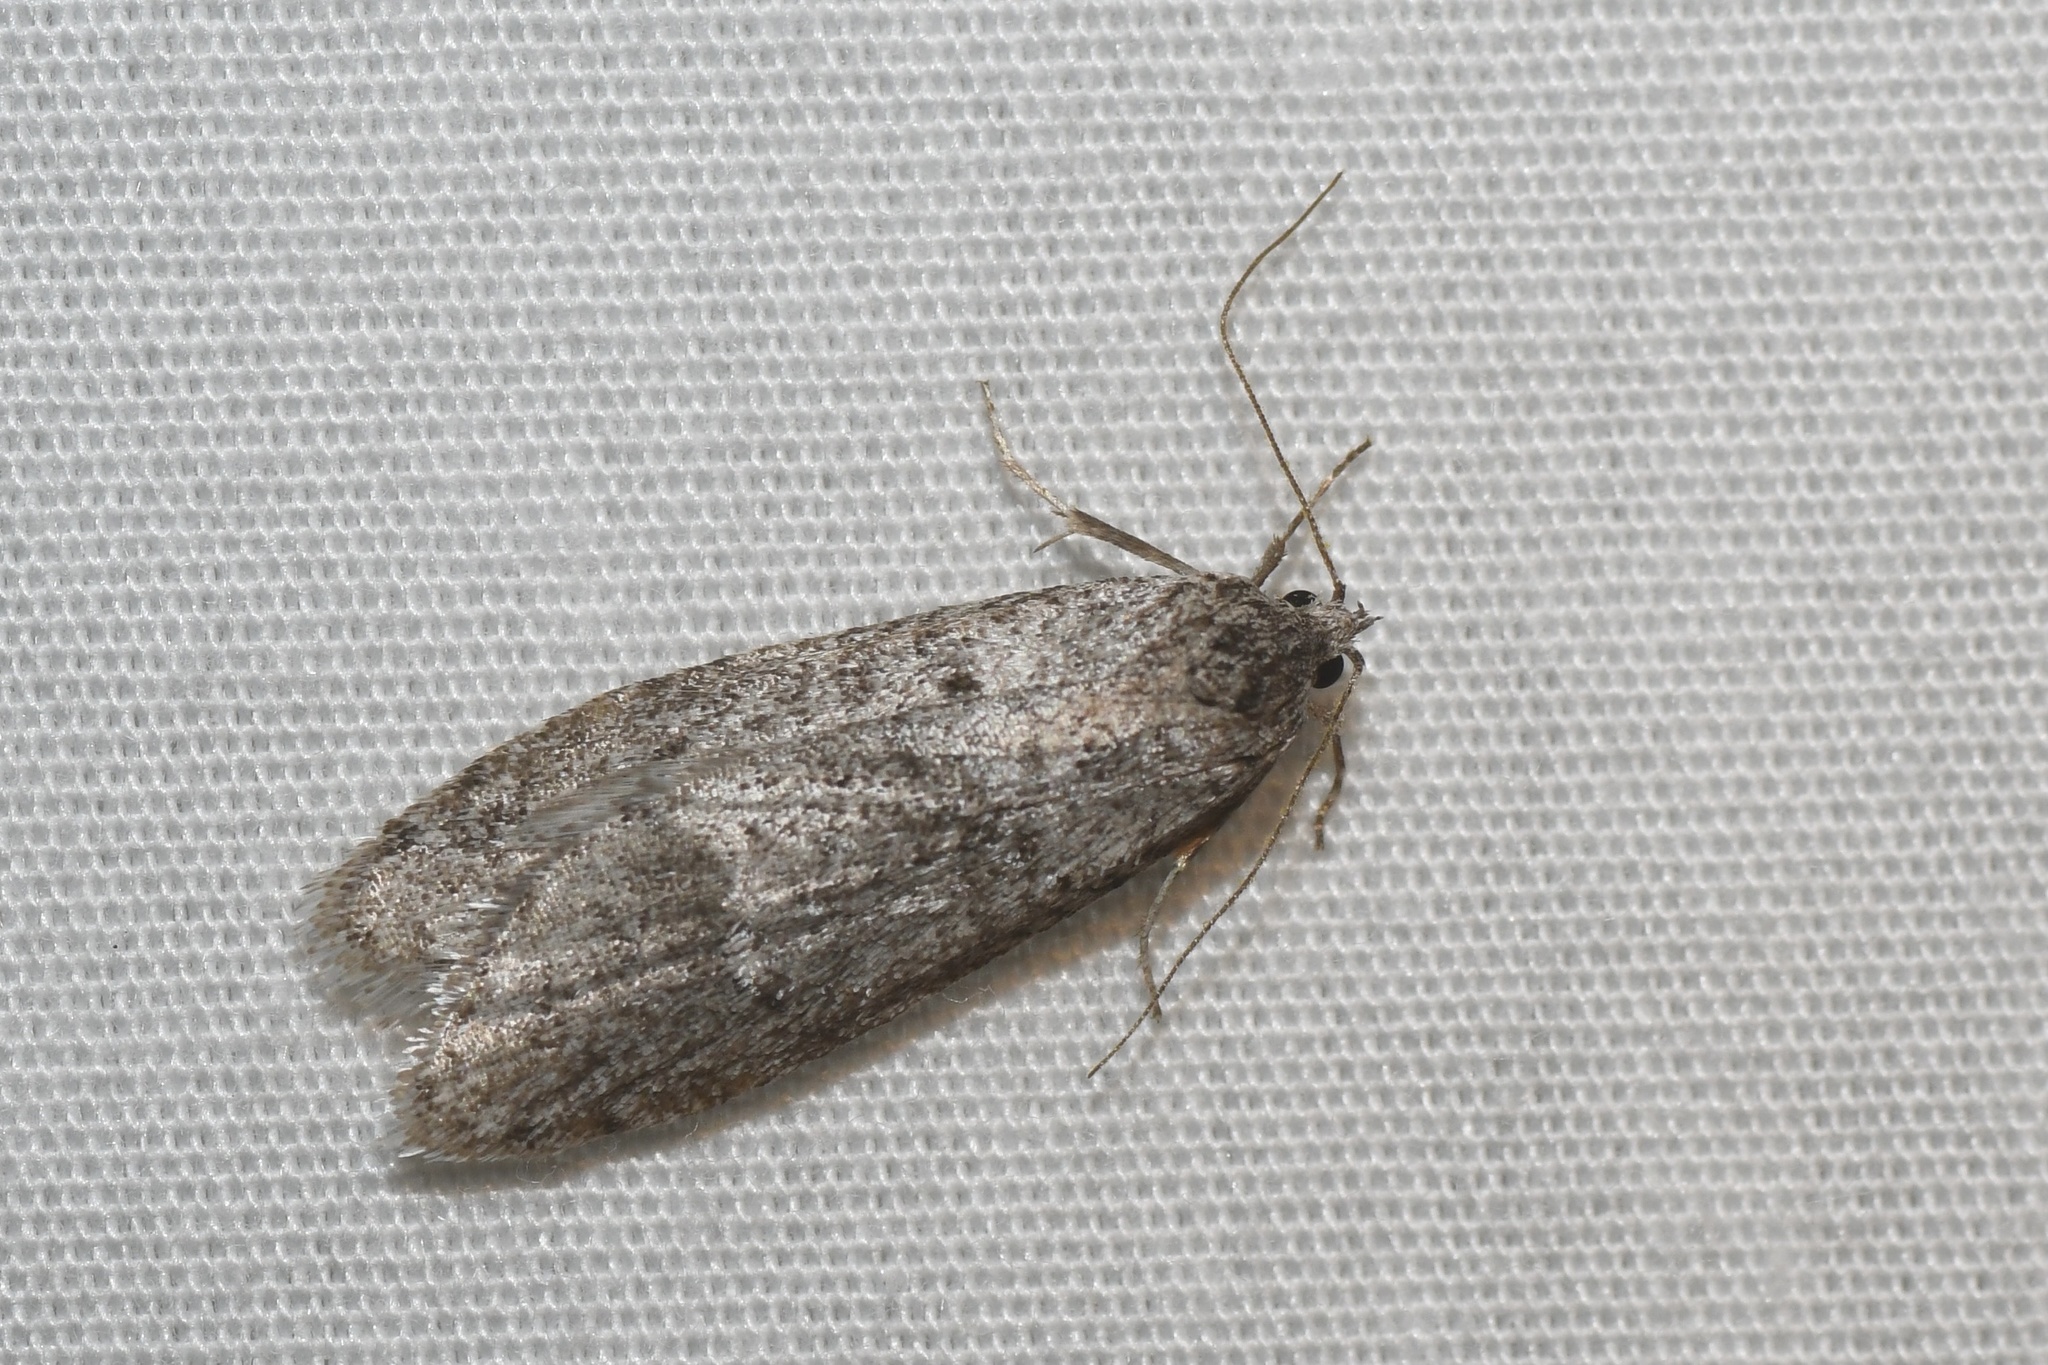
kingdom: Animalia
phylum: Arthropoda
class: Insecta
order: Lepidoptera
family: Depressariidae
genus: Semioscopis
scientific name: Semioscopis inornata
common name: Poplar micromoth
